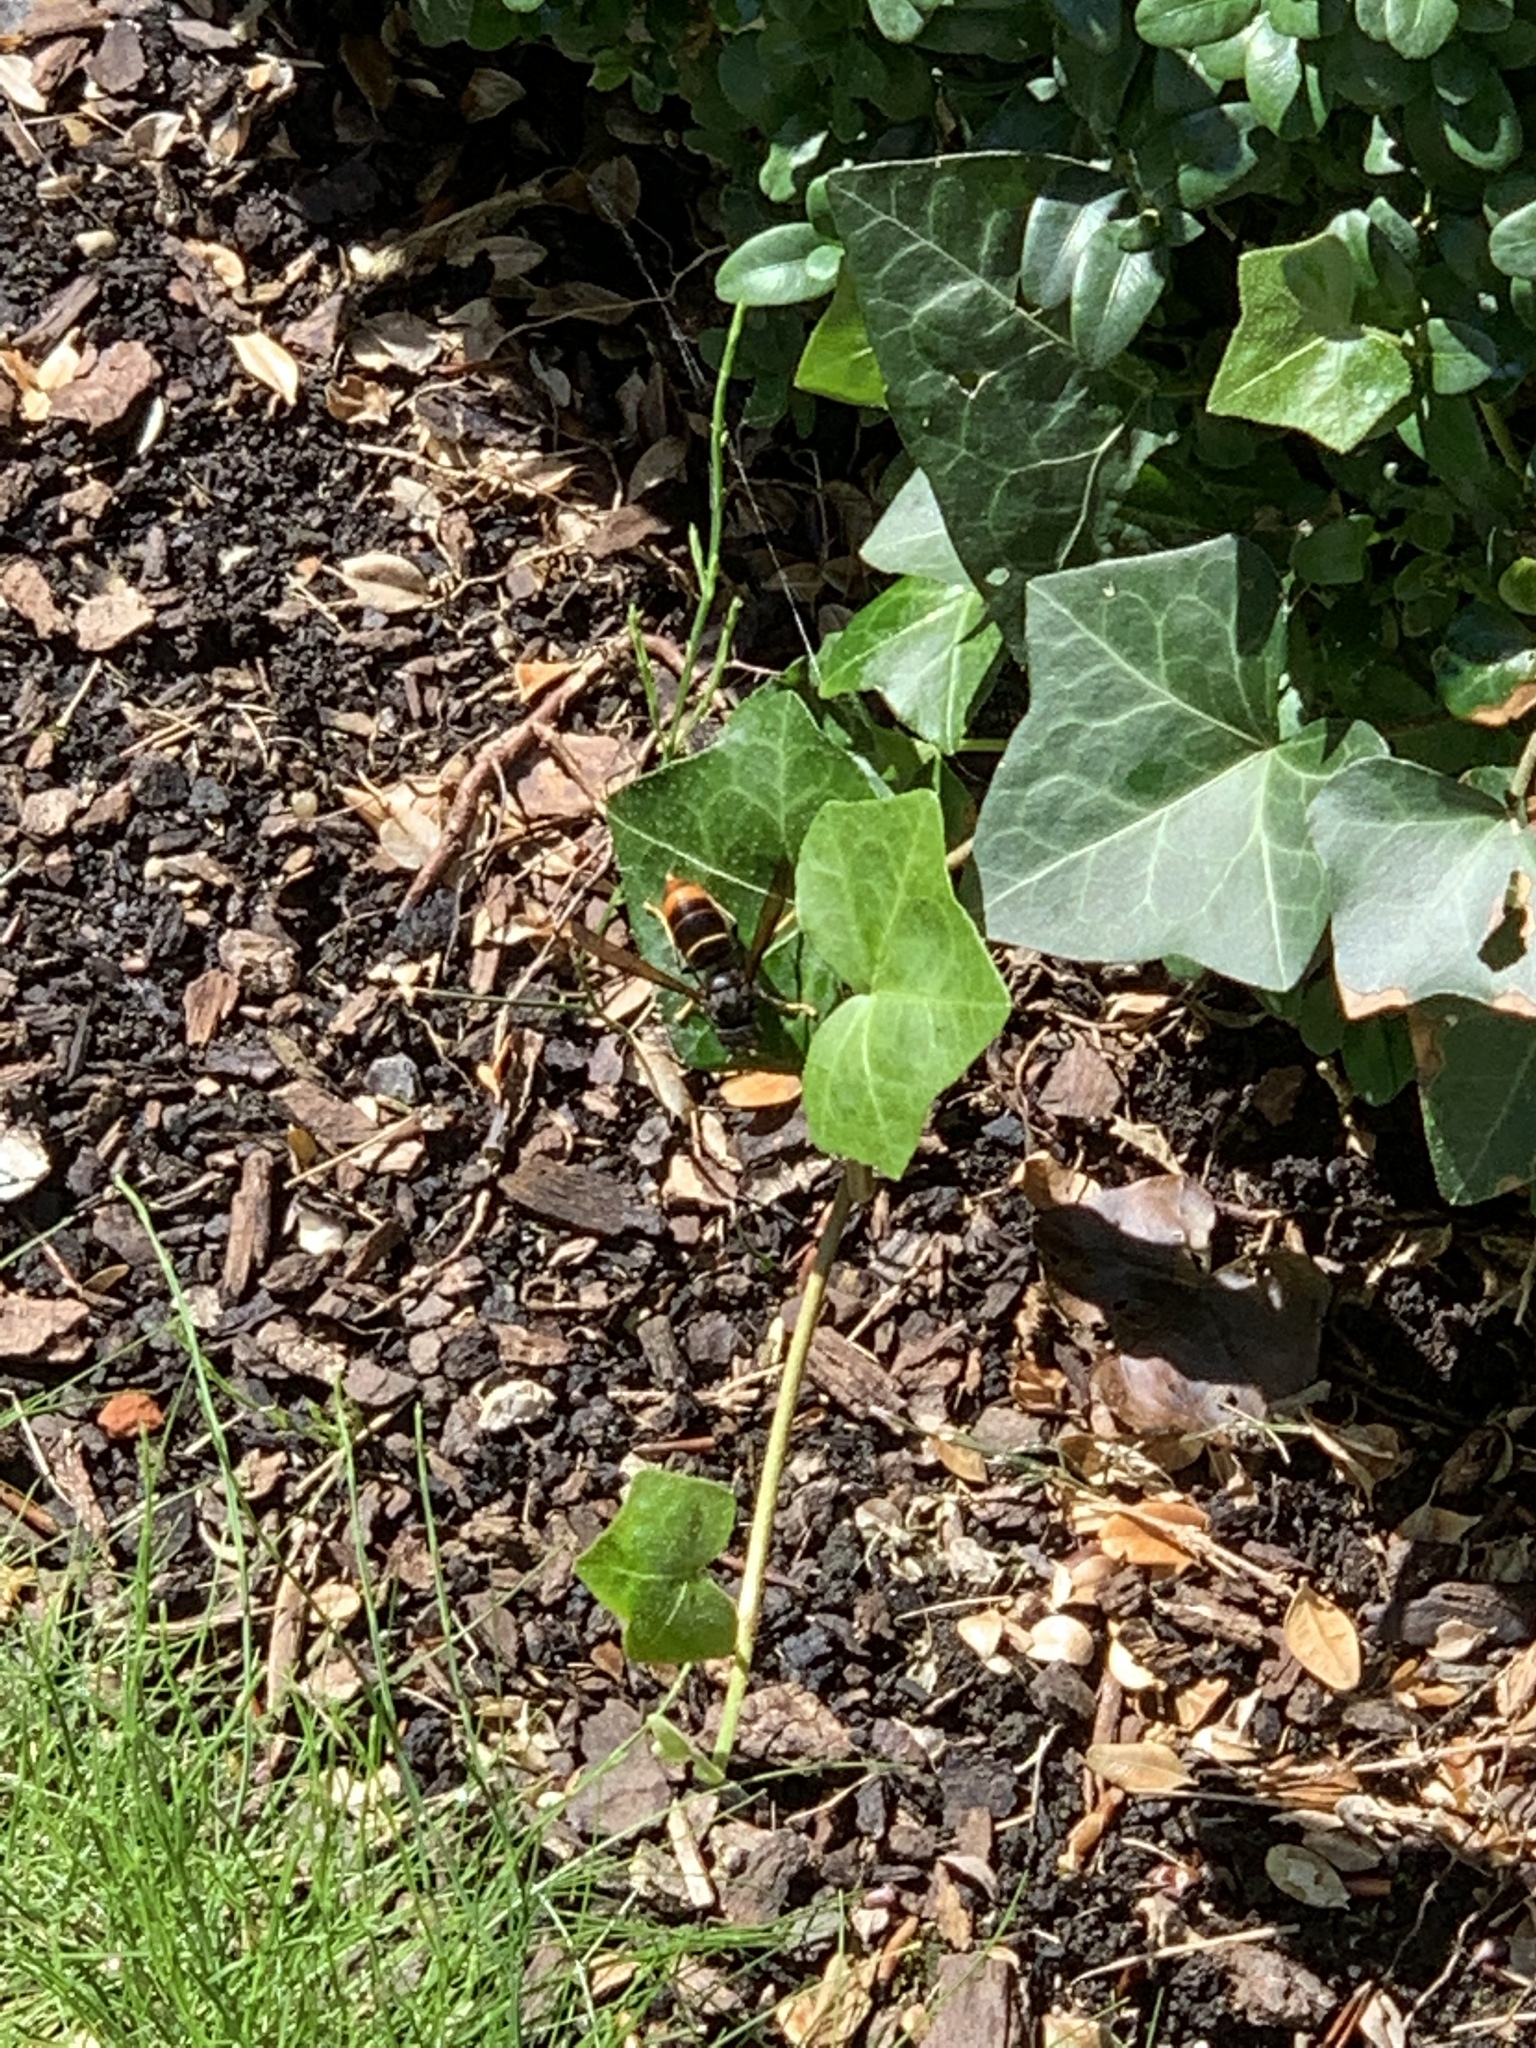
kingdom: Animalia
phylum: Arthropoda
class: Insecta
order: Hymenoptera
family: Vespidae
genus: Vespa
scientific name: Vespa velutina
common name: Asian hornet
